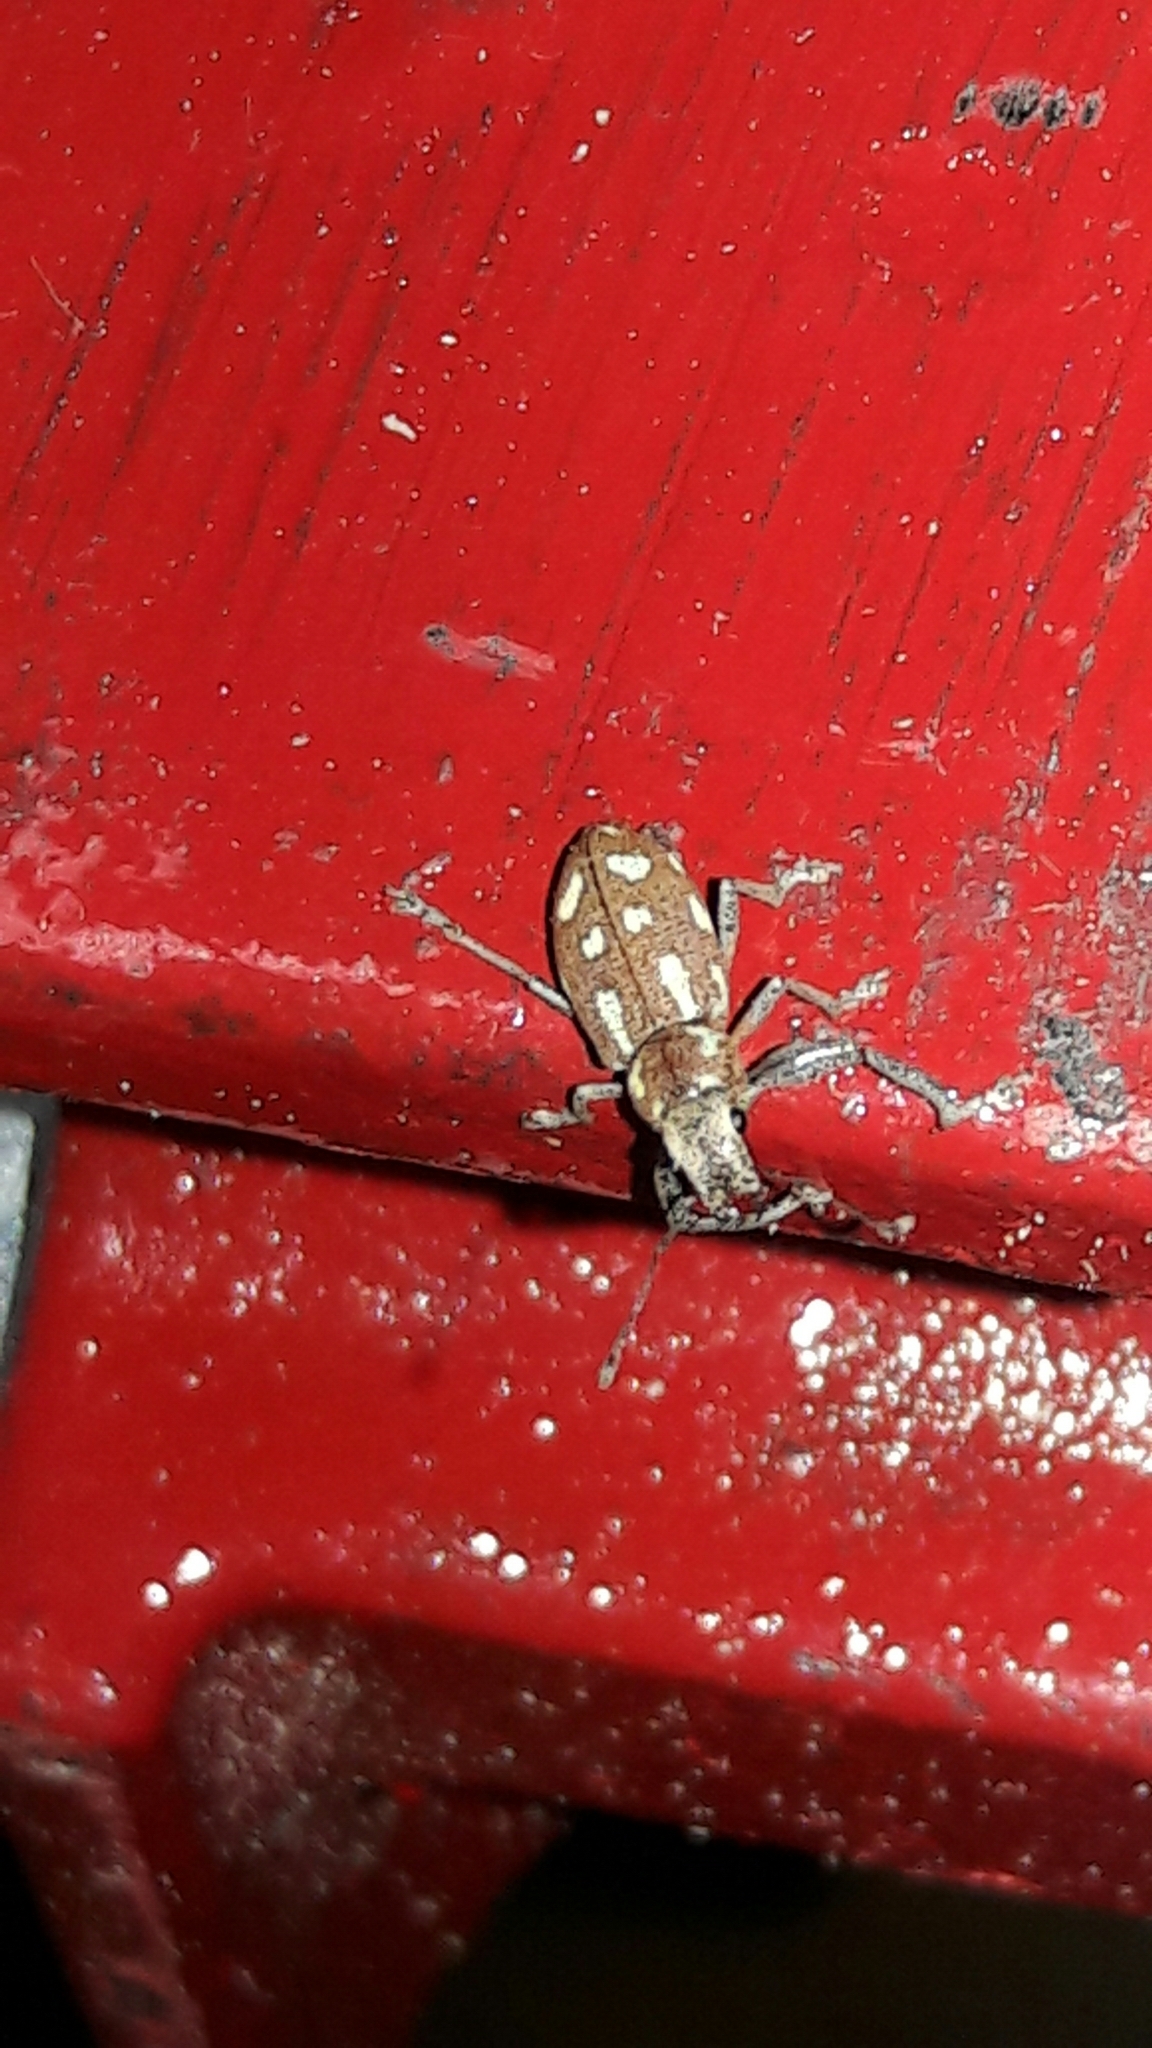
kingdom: Animalia
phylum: Arthropoda
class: Insecta
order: Coleoptera
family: Curculionidae
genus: Naupactus
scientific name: Naupactus bellus
